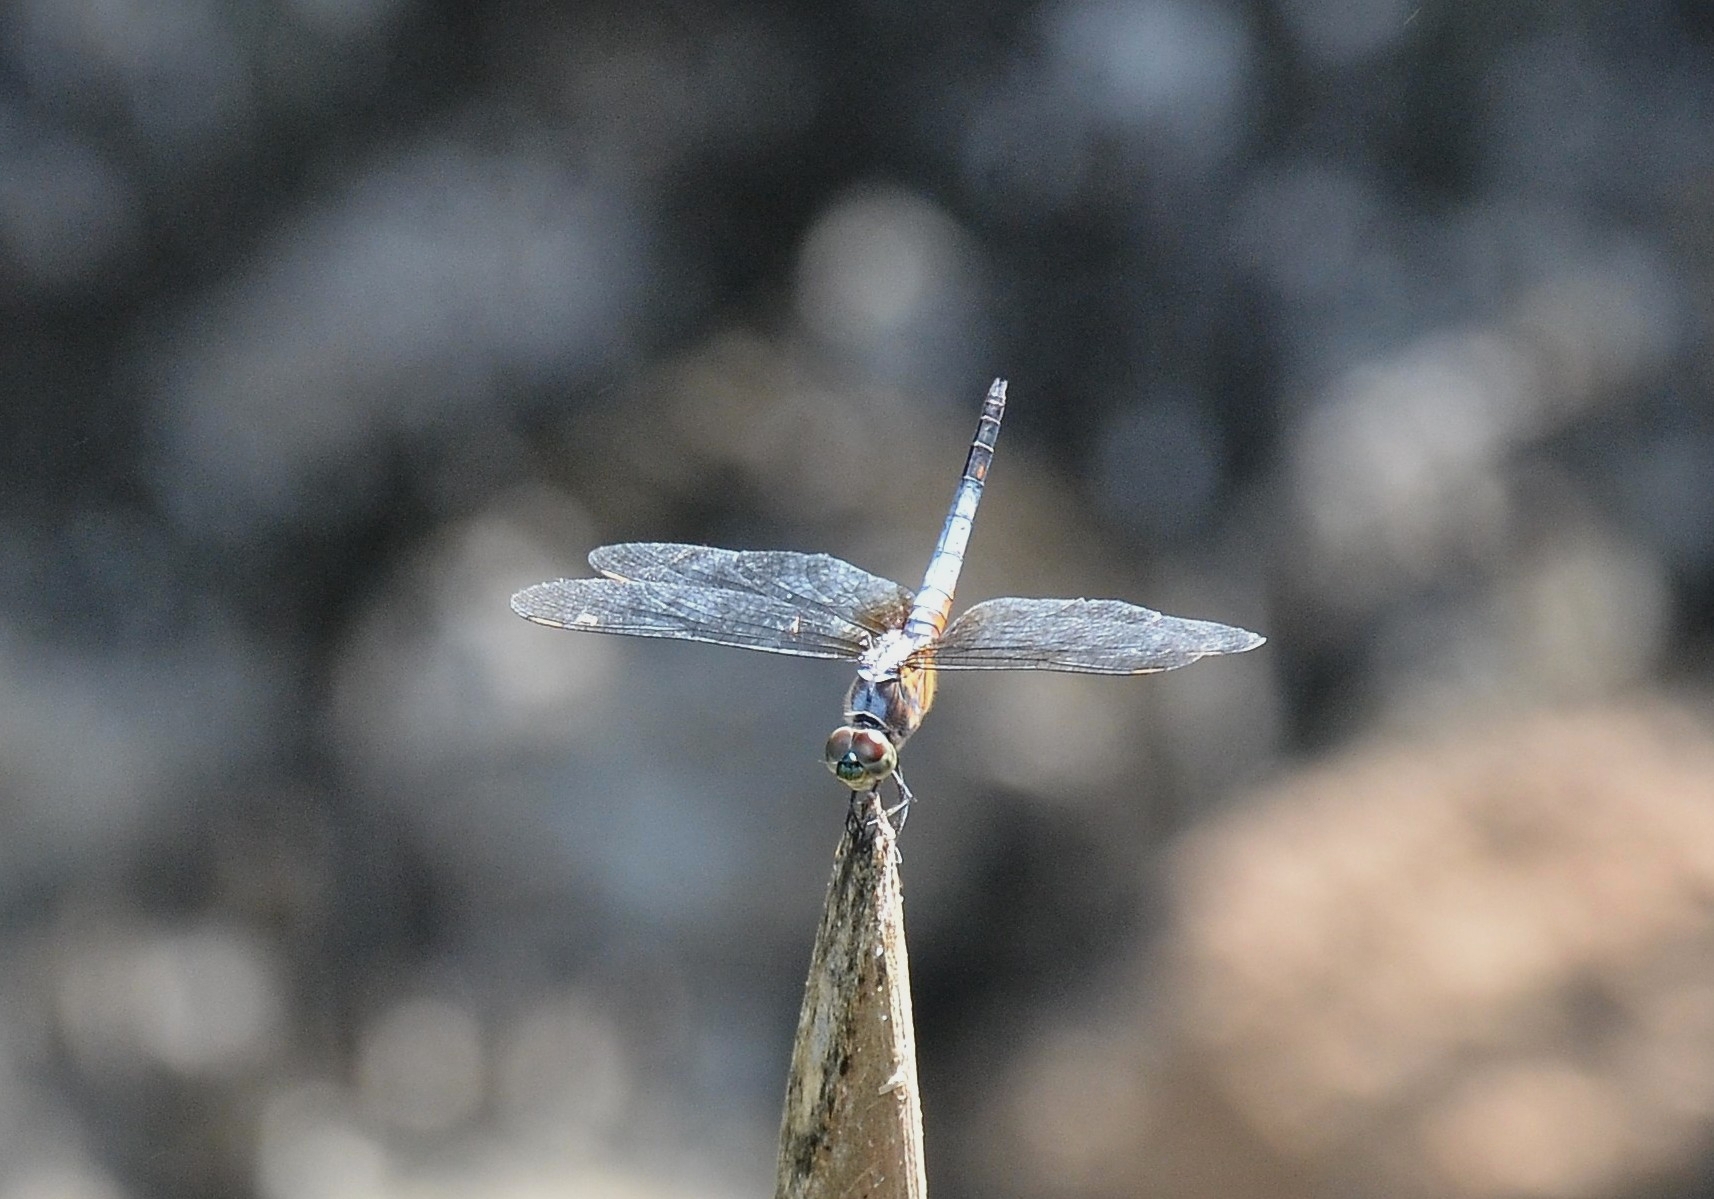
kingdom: Animalia
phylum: Arthropoda
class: Insecta
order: Odonata
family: Libellulidae
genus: Brachydiplax
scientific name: Brachydiplax chalybea
